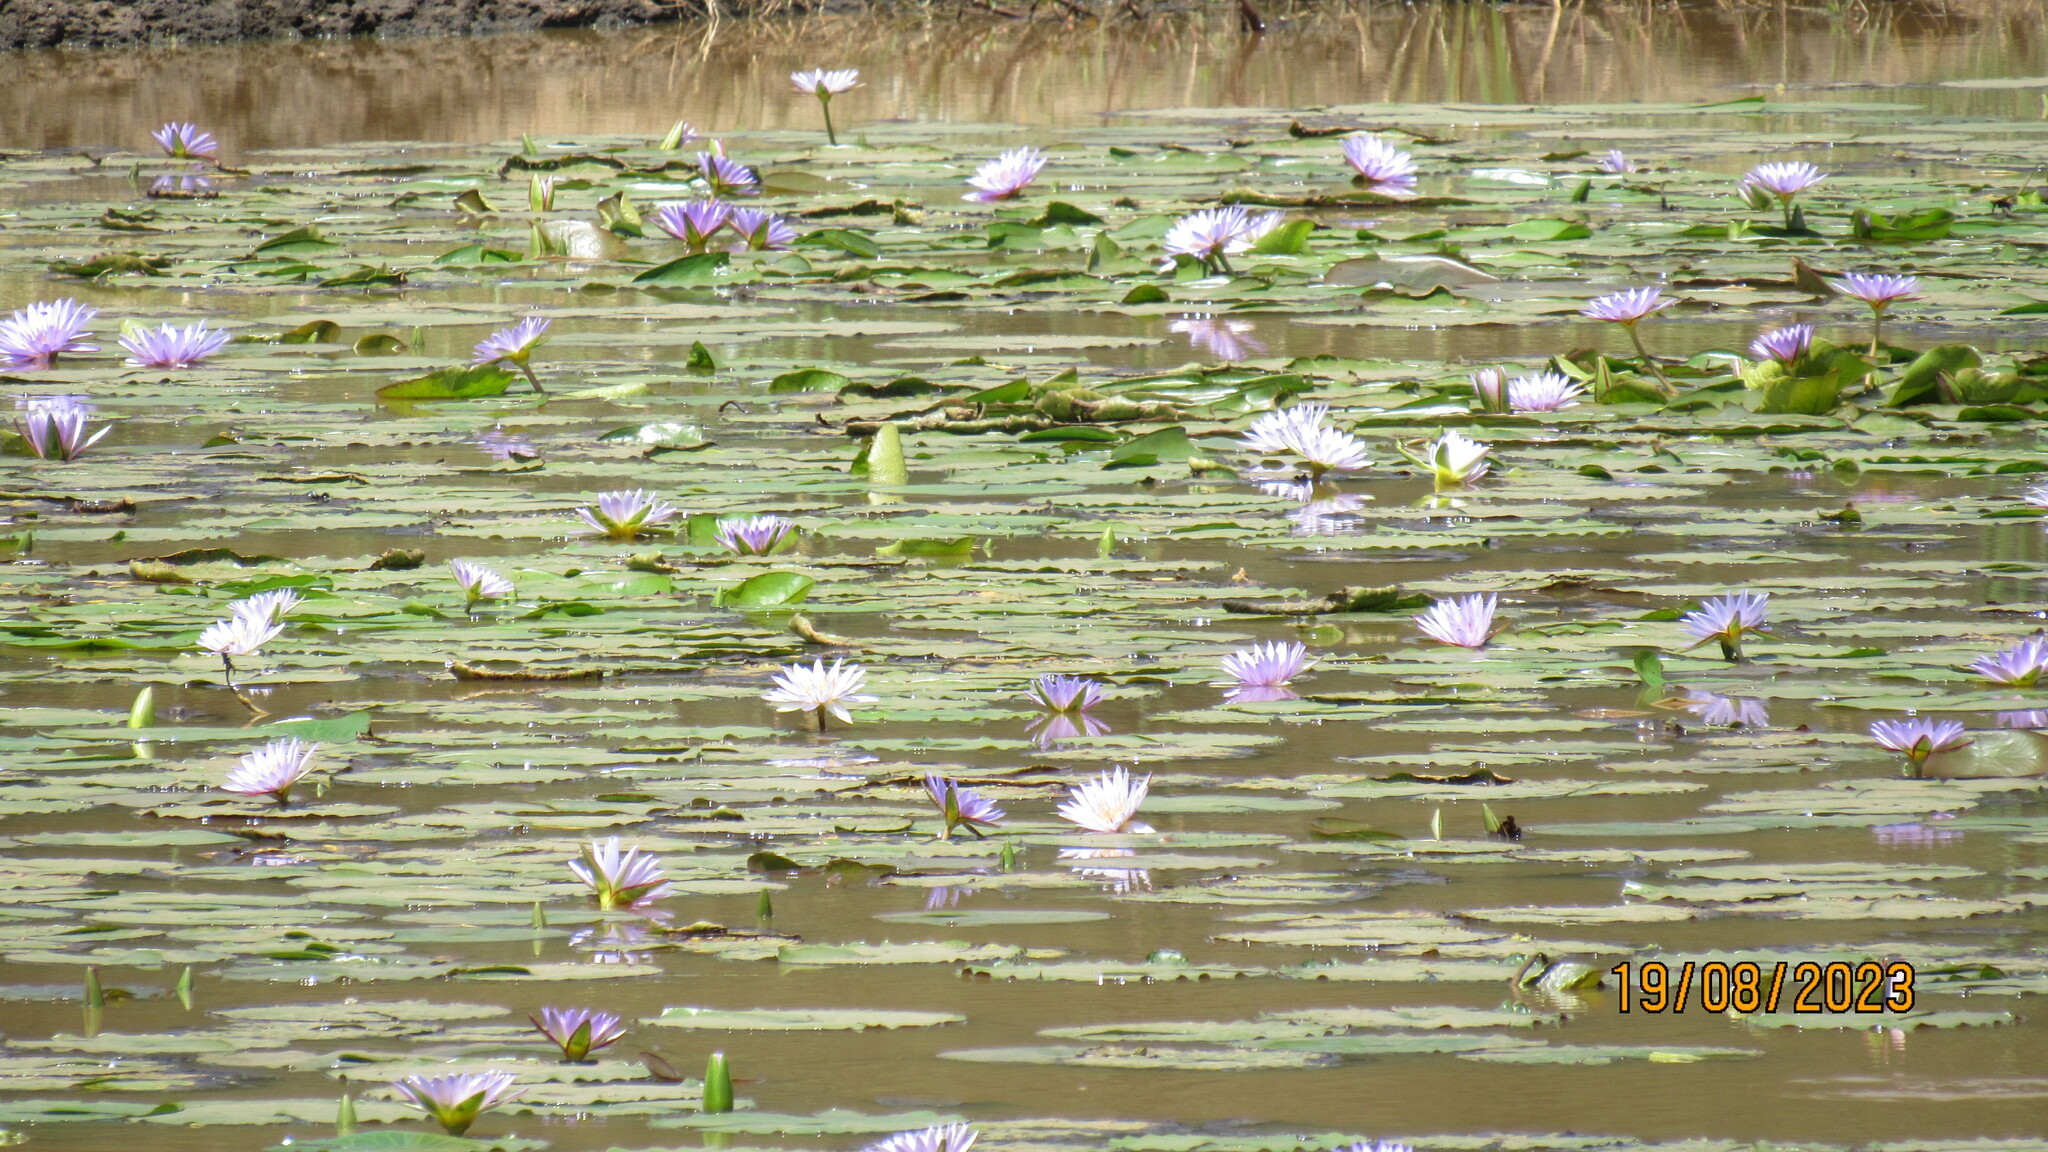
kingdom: Plantae
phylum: Tracheophyta
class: Magnoliopsida
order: Nymphaeales
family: Nymphaeaceae
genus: Nymphaea
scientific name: Nymphaea nouchali
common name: Blue lotus
